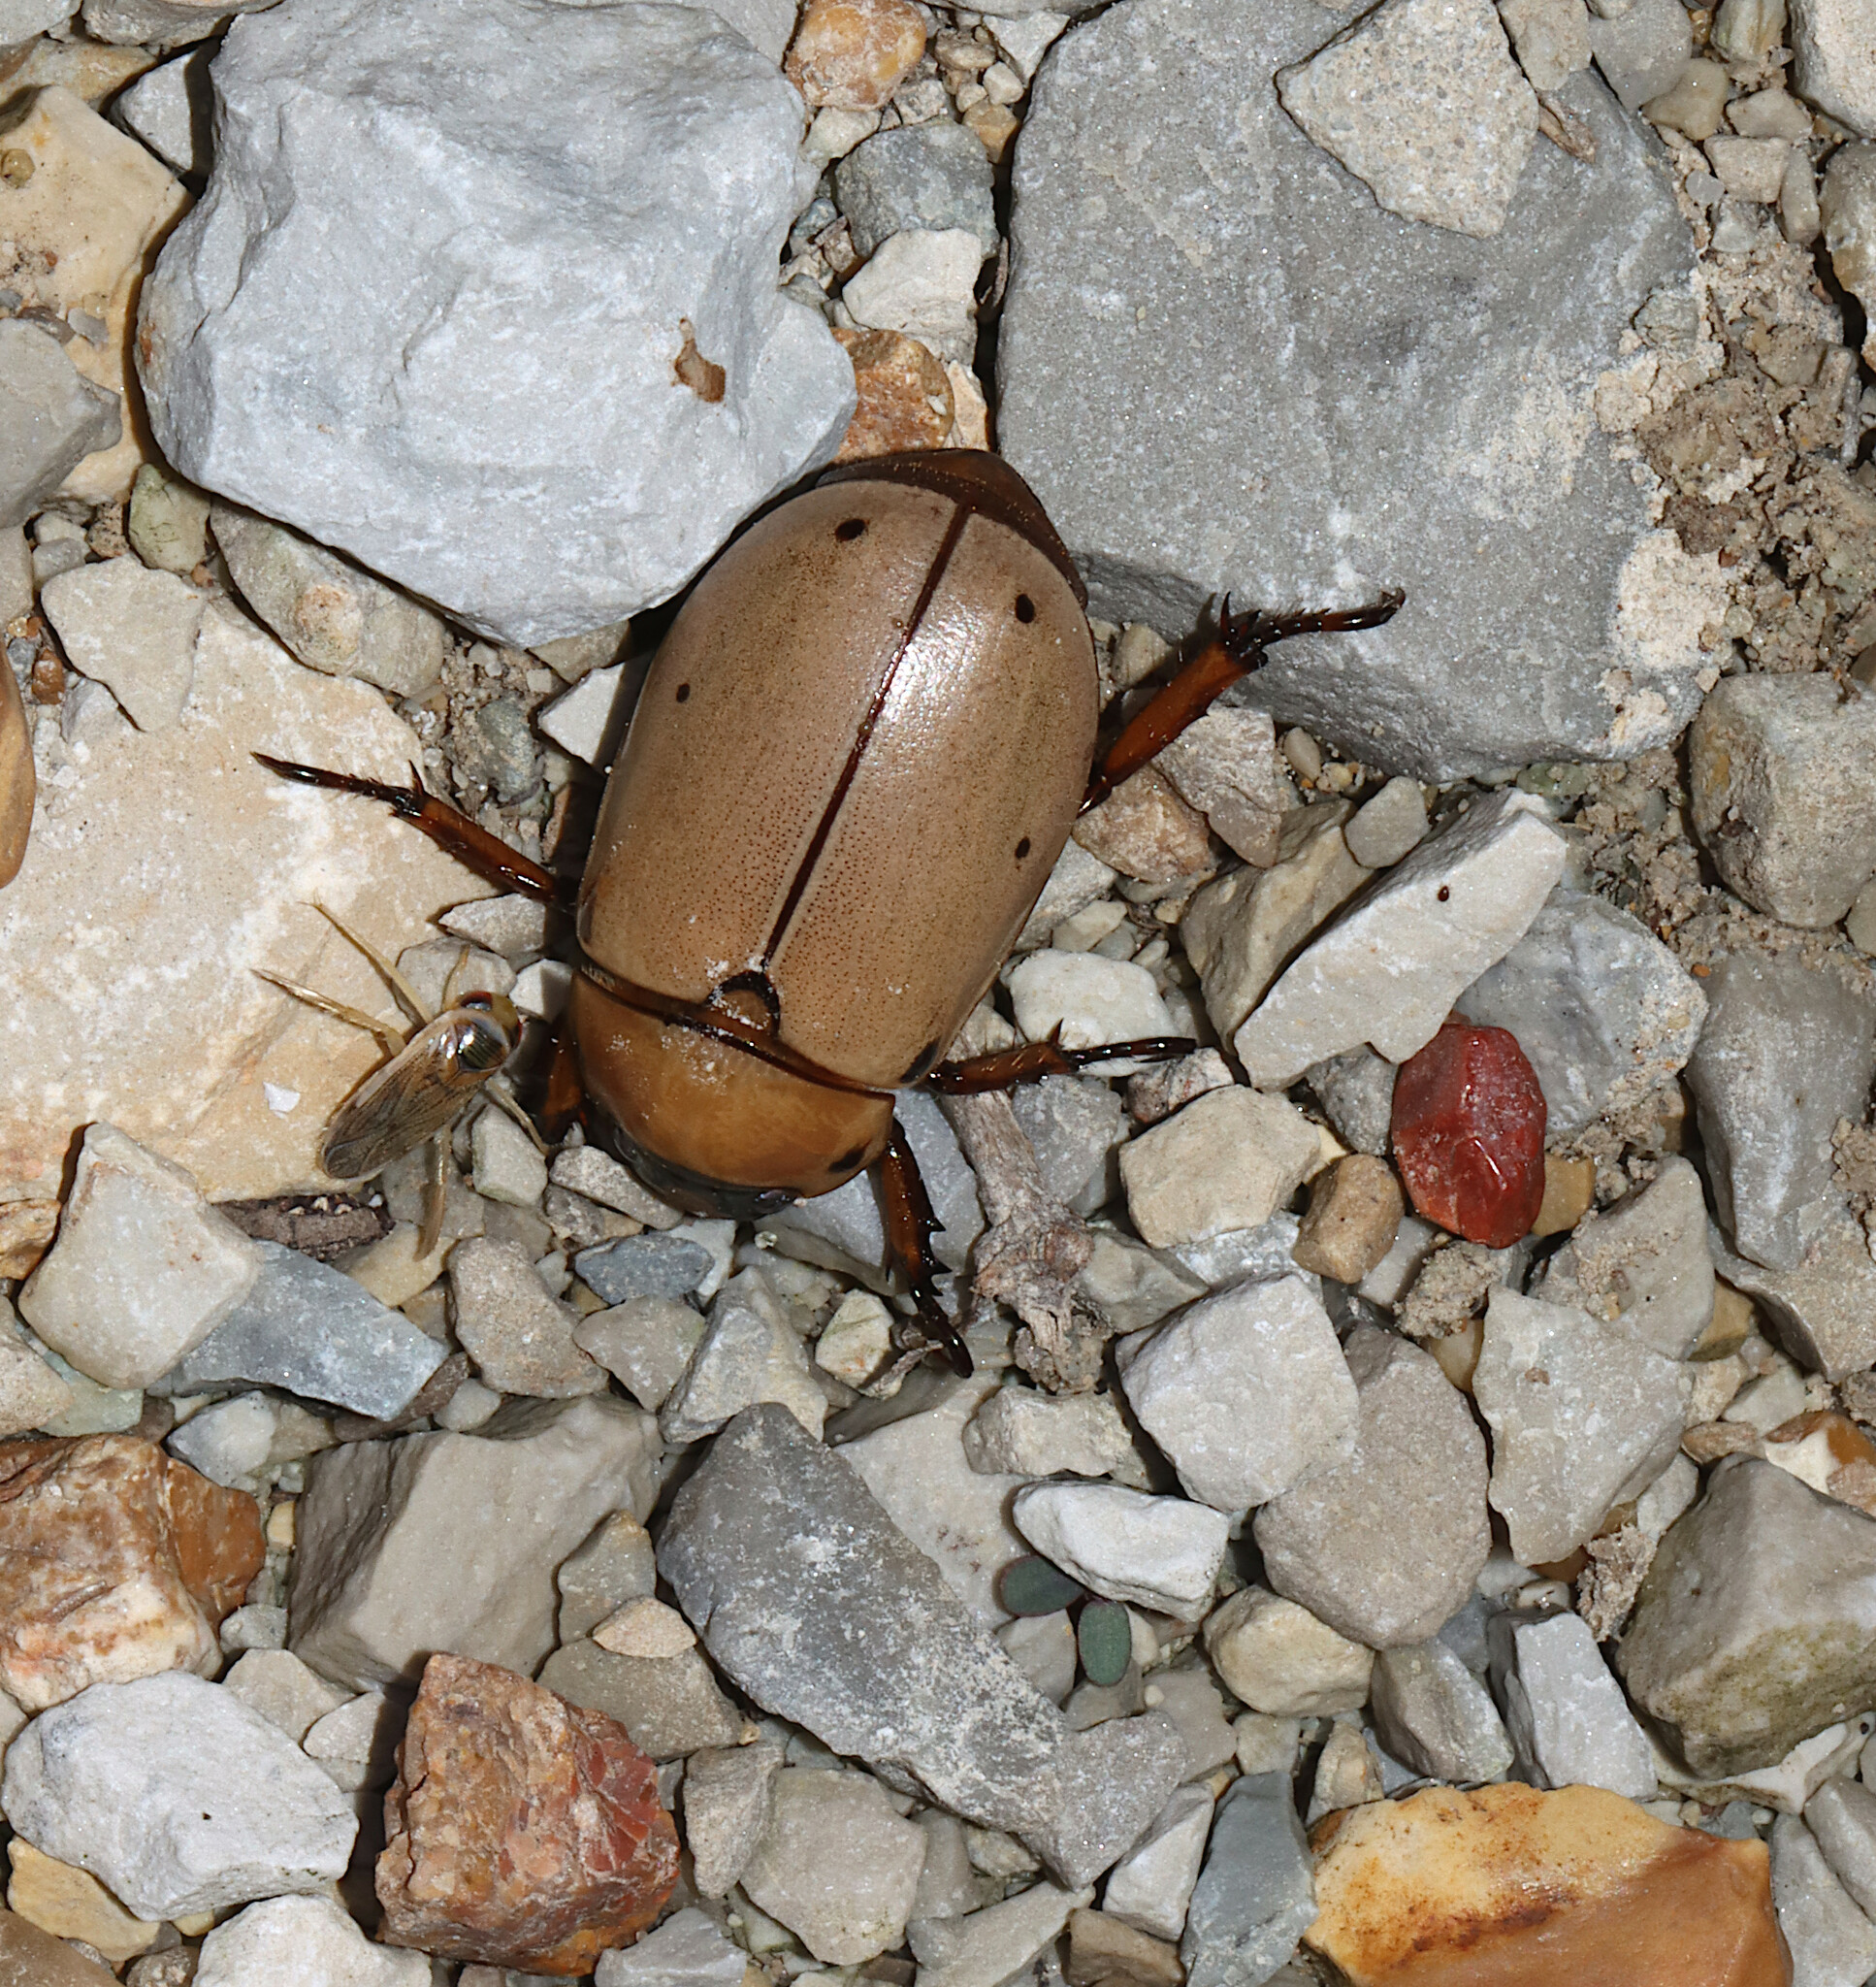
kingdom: Animalia
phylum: Arthropoda
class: Insecta
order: Coleoptera
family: Scarabaeidae
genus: Pelidnota
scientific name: Pelidnota punctata
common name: Grapevine beetle
